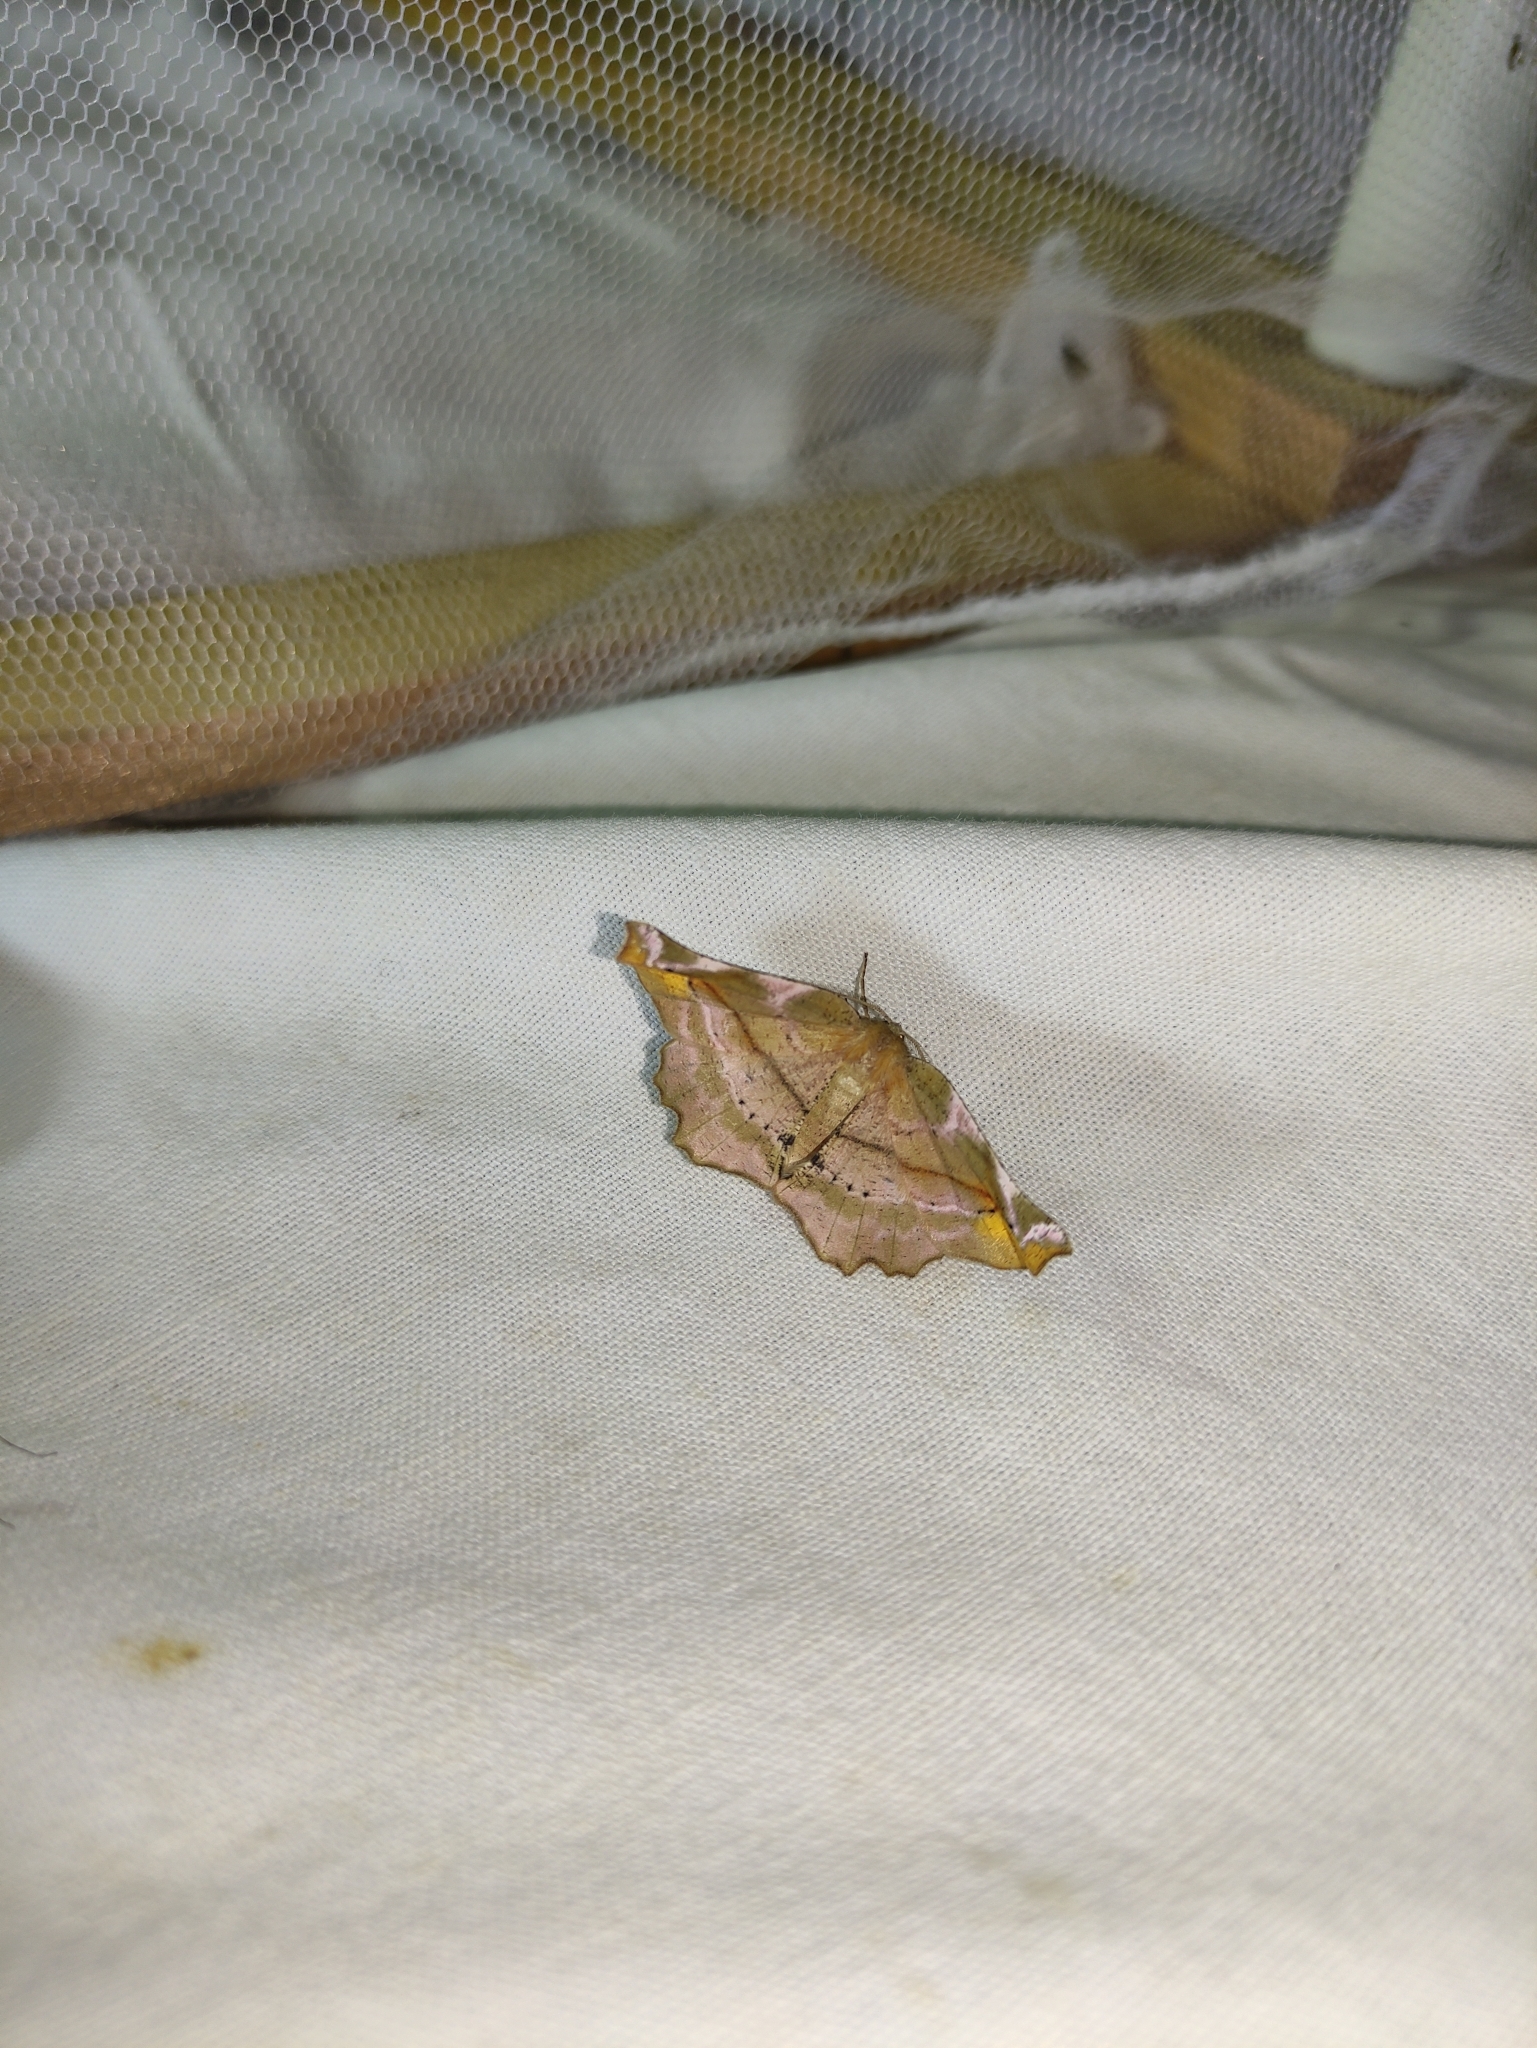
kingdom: Animalia
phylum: Arthropoda
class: Insecta
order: Lepidoptera
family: Geometridae
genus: Apeira
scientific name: Apeira syringaria
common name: Lilac beauty
